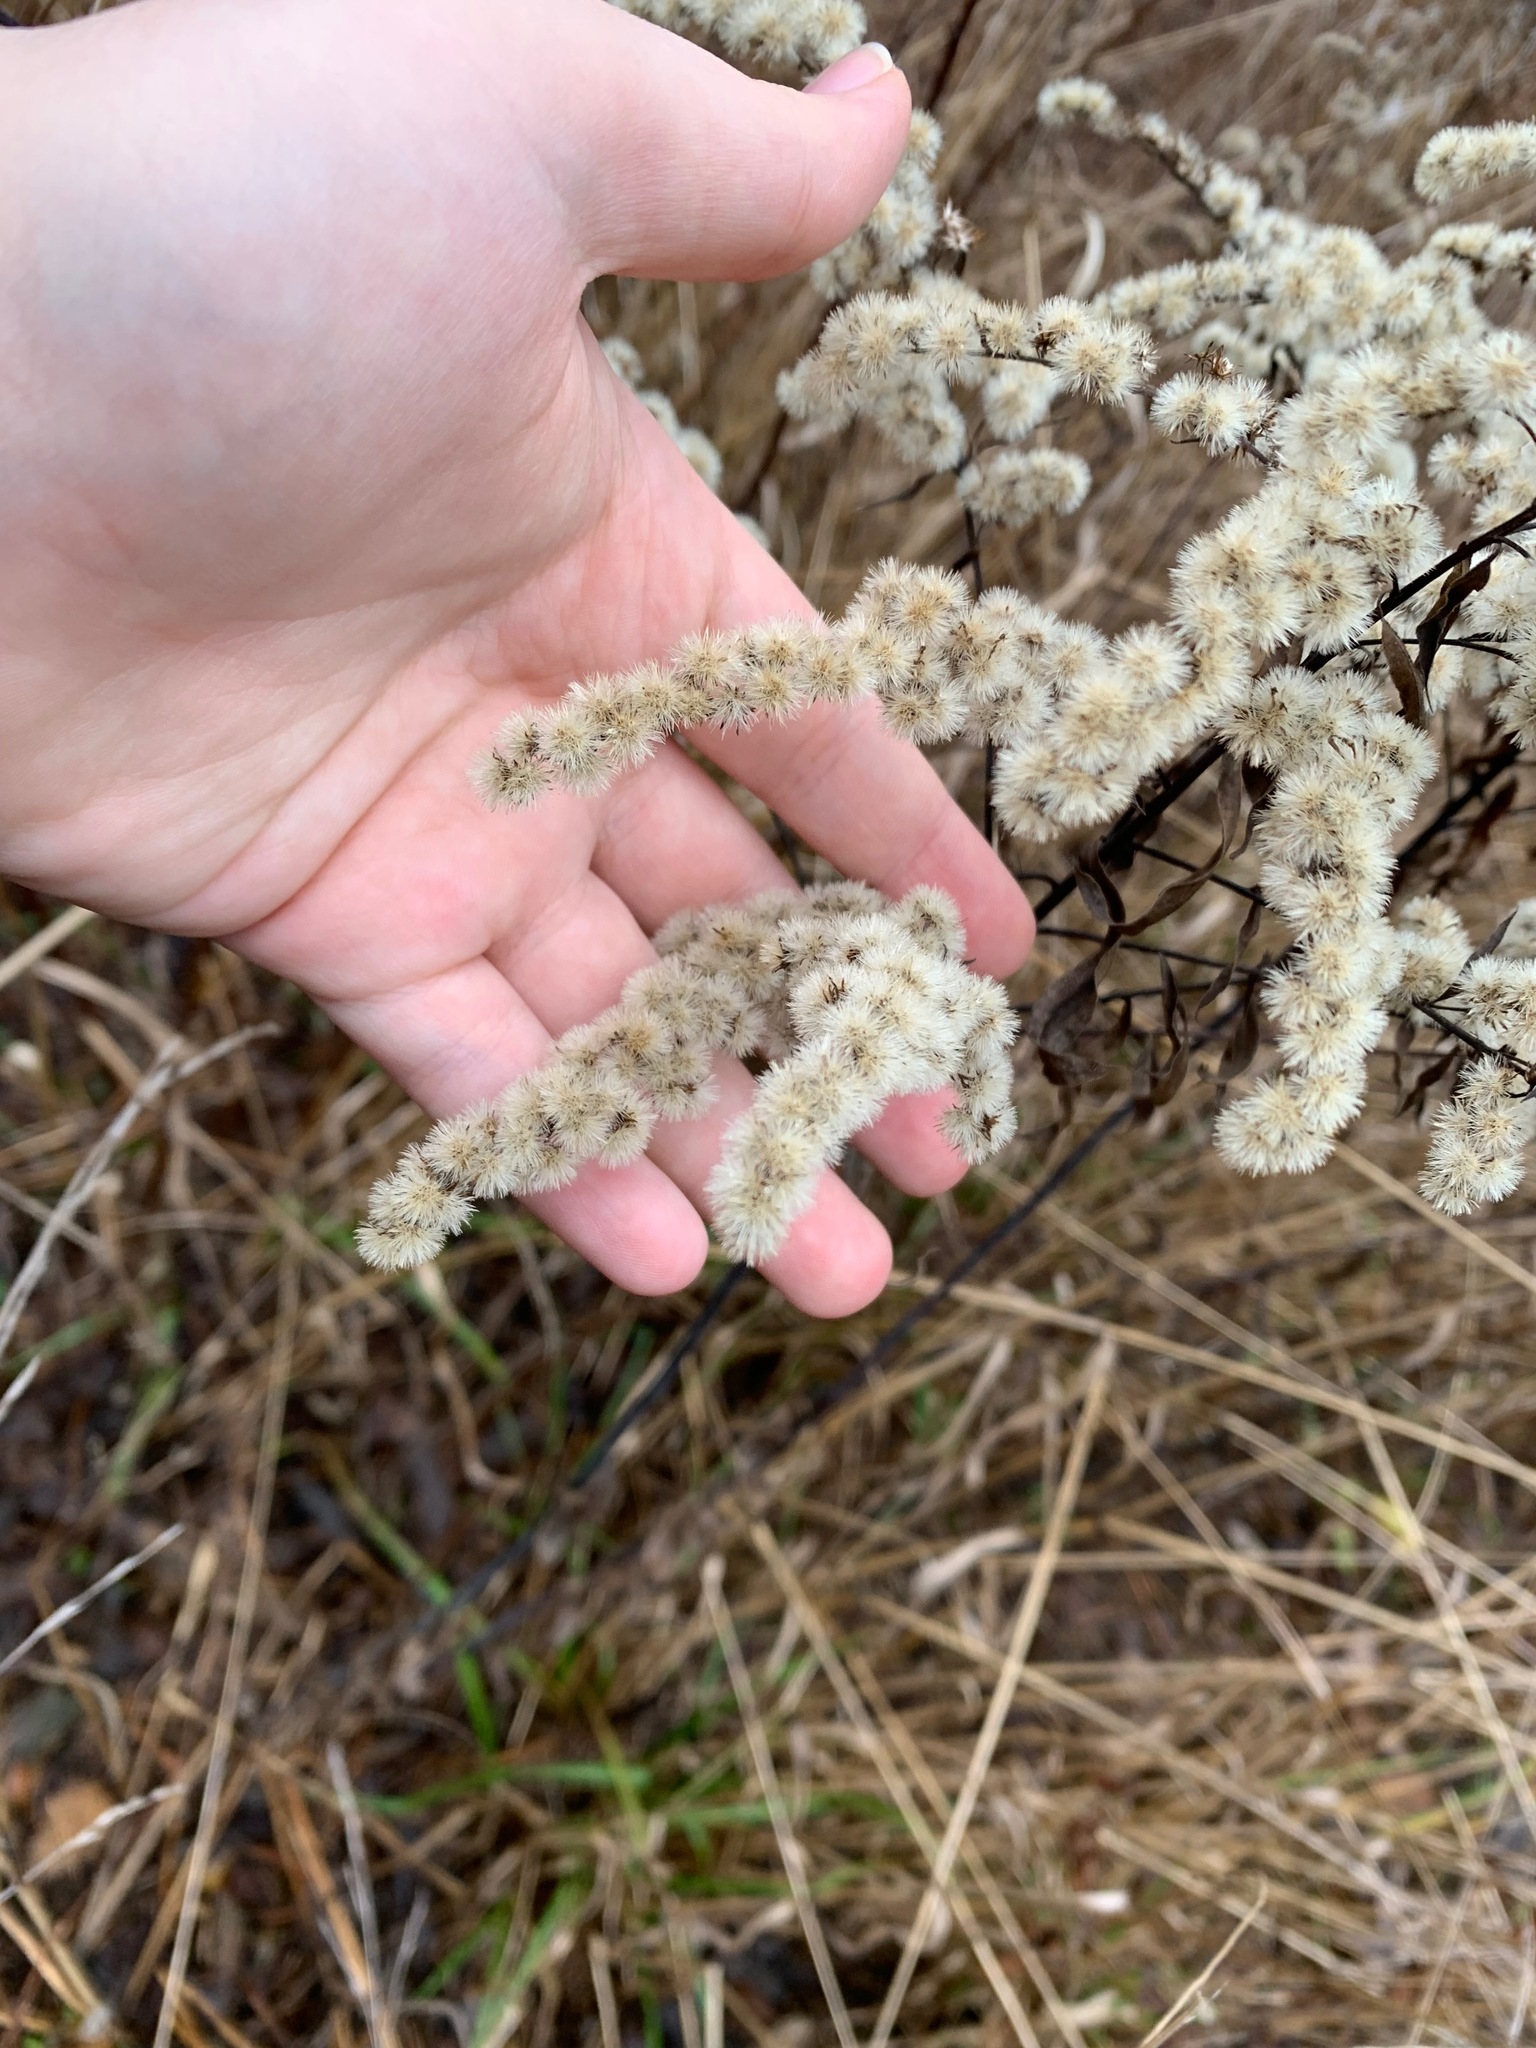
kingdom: Plantae
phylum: Tracheophyta
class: Magnoliopsida
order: Asterales
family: Asteraceae
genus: Solidago
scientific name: Solidago canadensis
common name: Canada goldenrod
